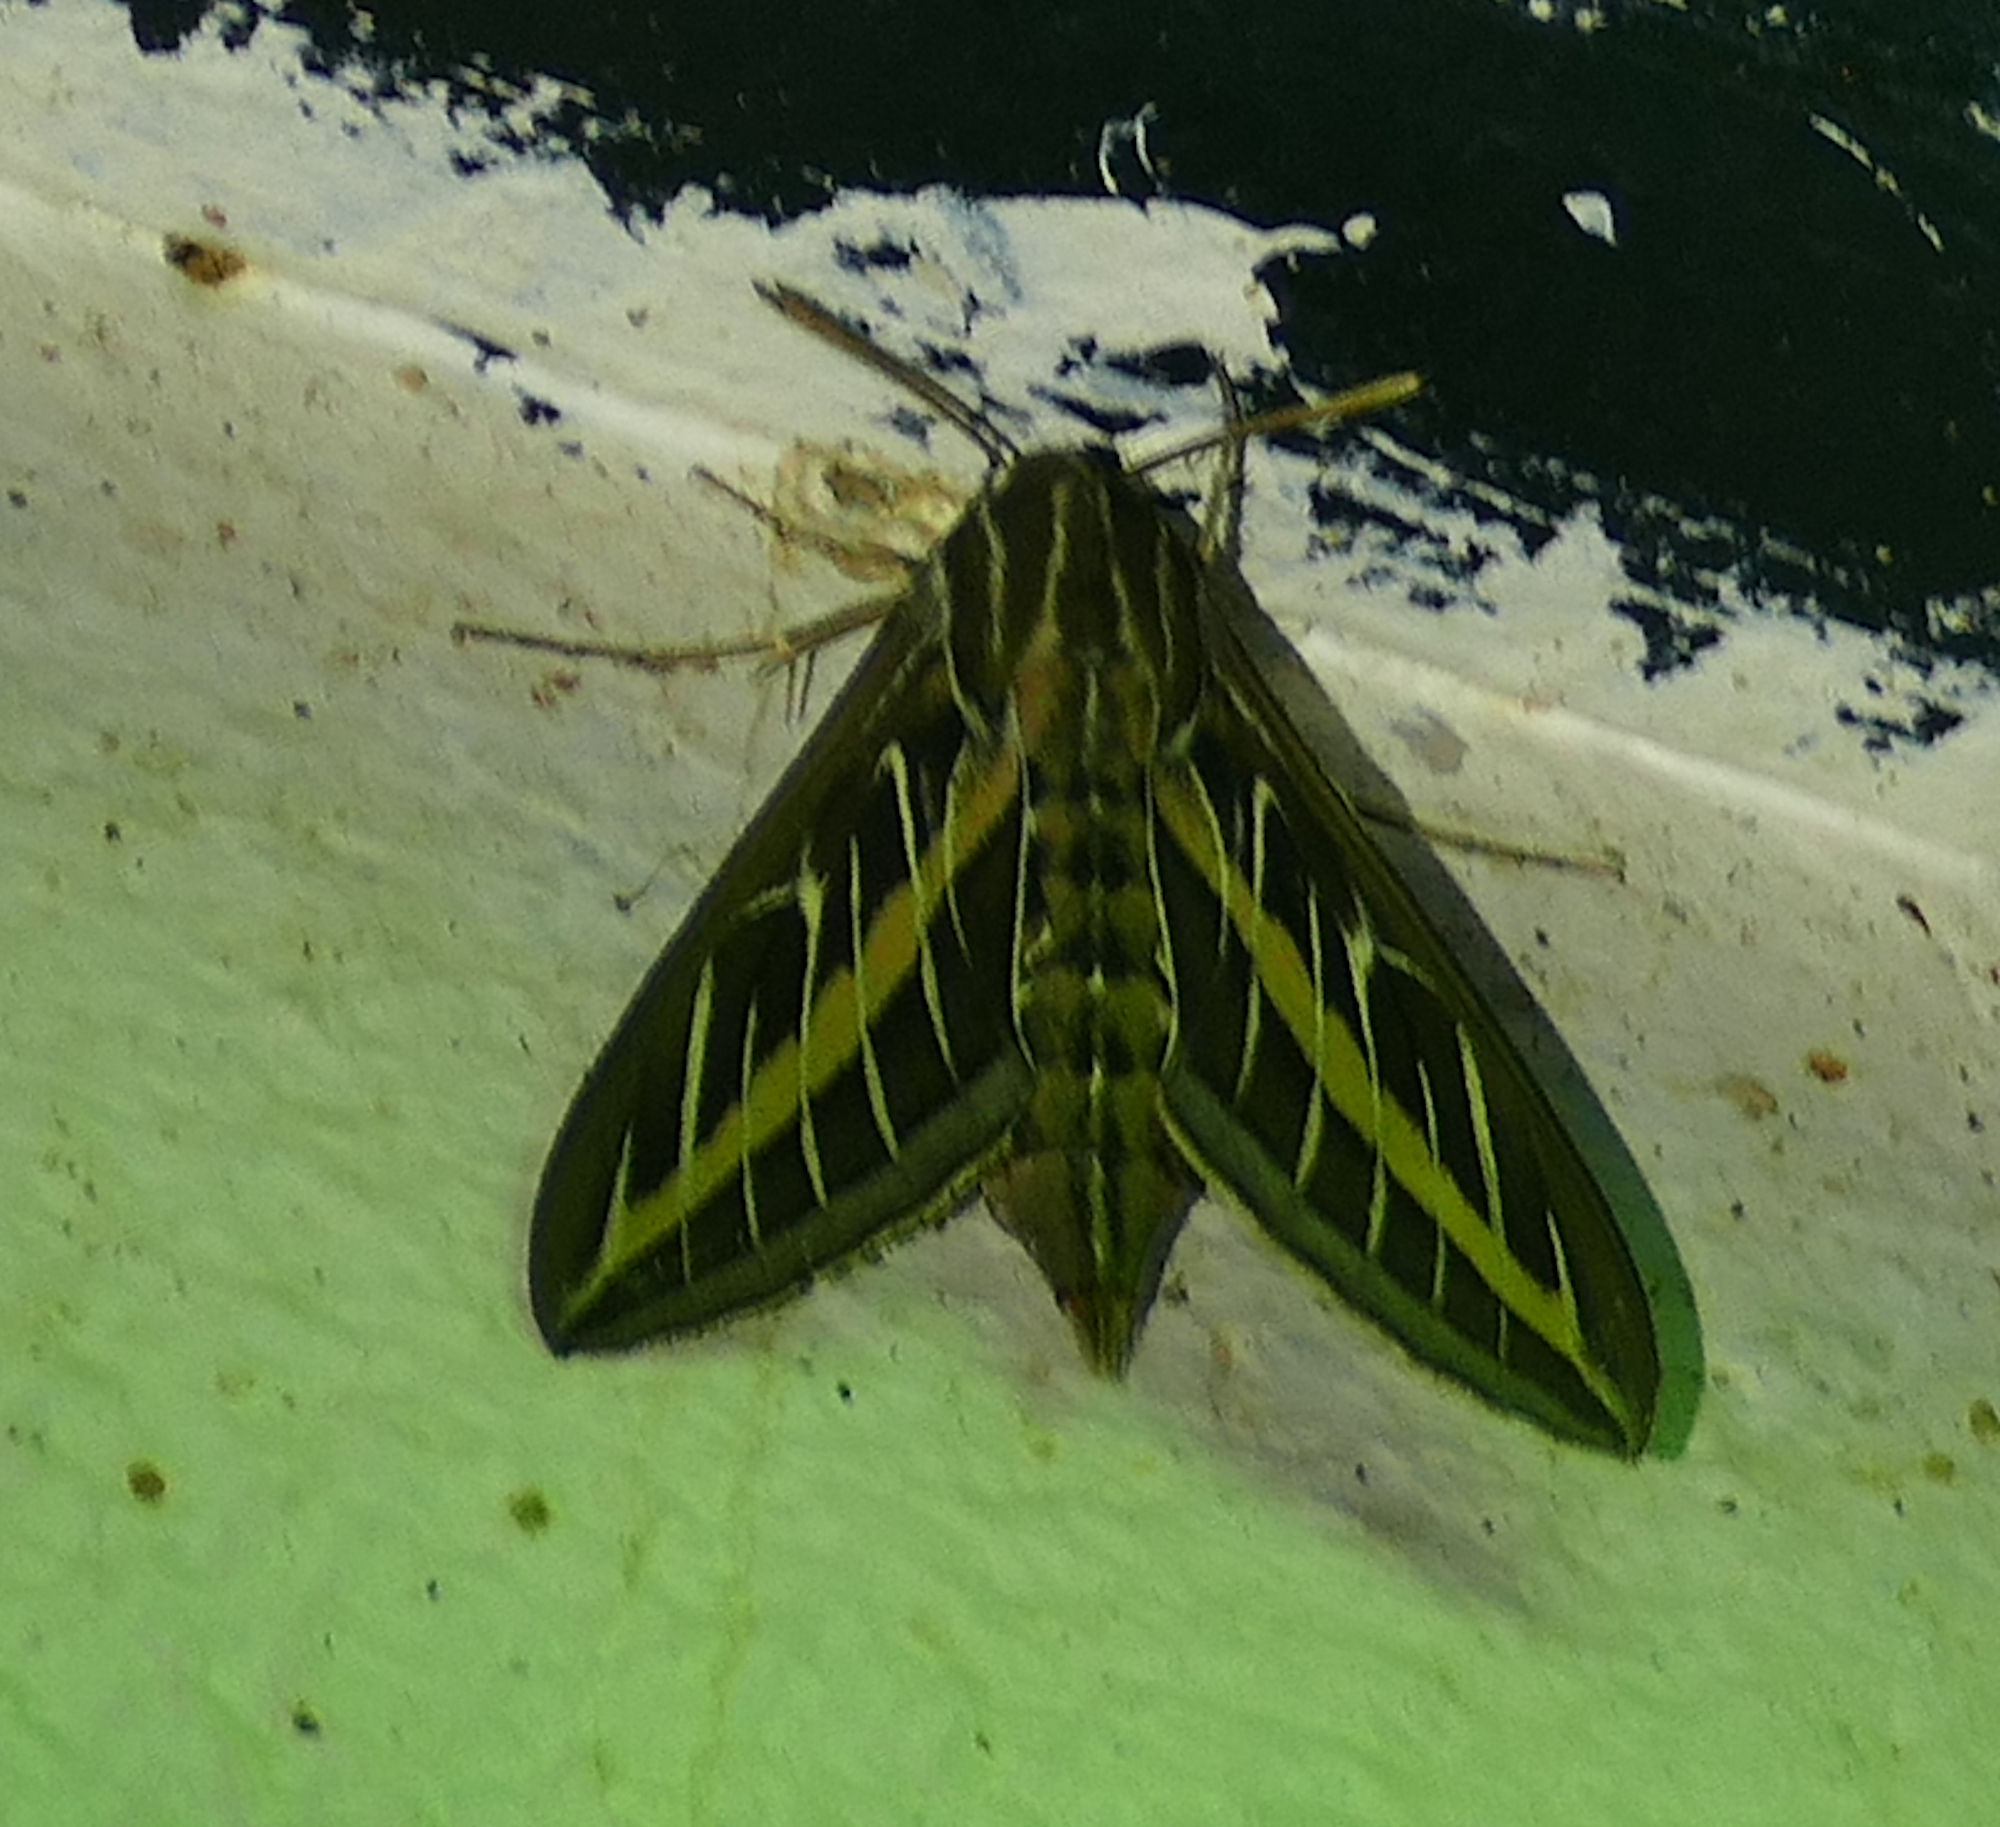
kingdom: Animalia
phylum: Arthropoda
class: Insecta
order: Lepidoptera
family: Sphingidae
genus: Hyles
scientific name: Hyles lineata
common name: White-lined sphinx
